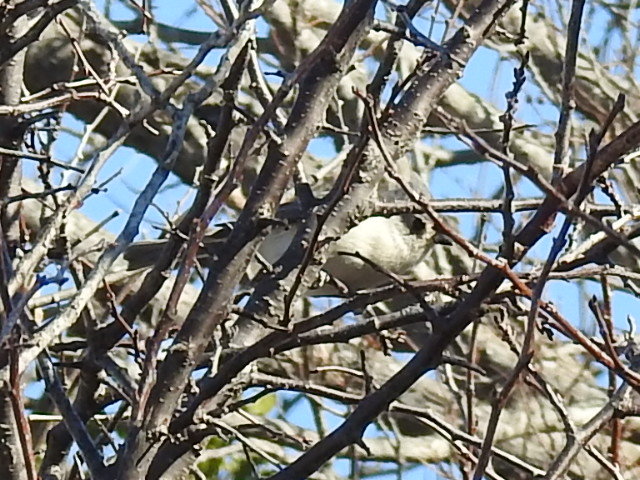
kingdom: Animalia
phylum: Chordata
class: Aves
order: Passeriformes
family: Paridae
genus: Baeolophus
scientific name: Baeolophus bicolor
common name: Tufted titmouse
